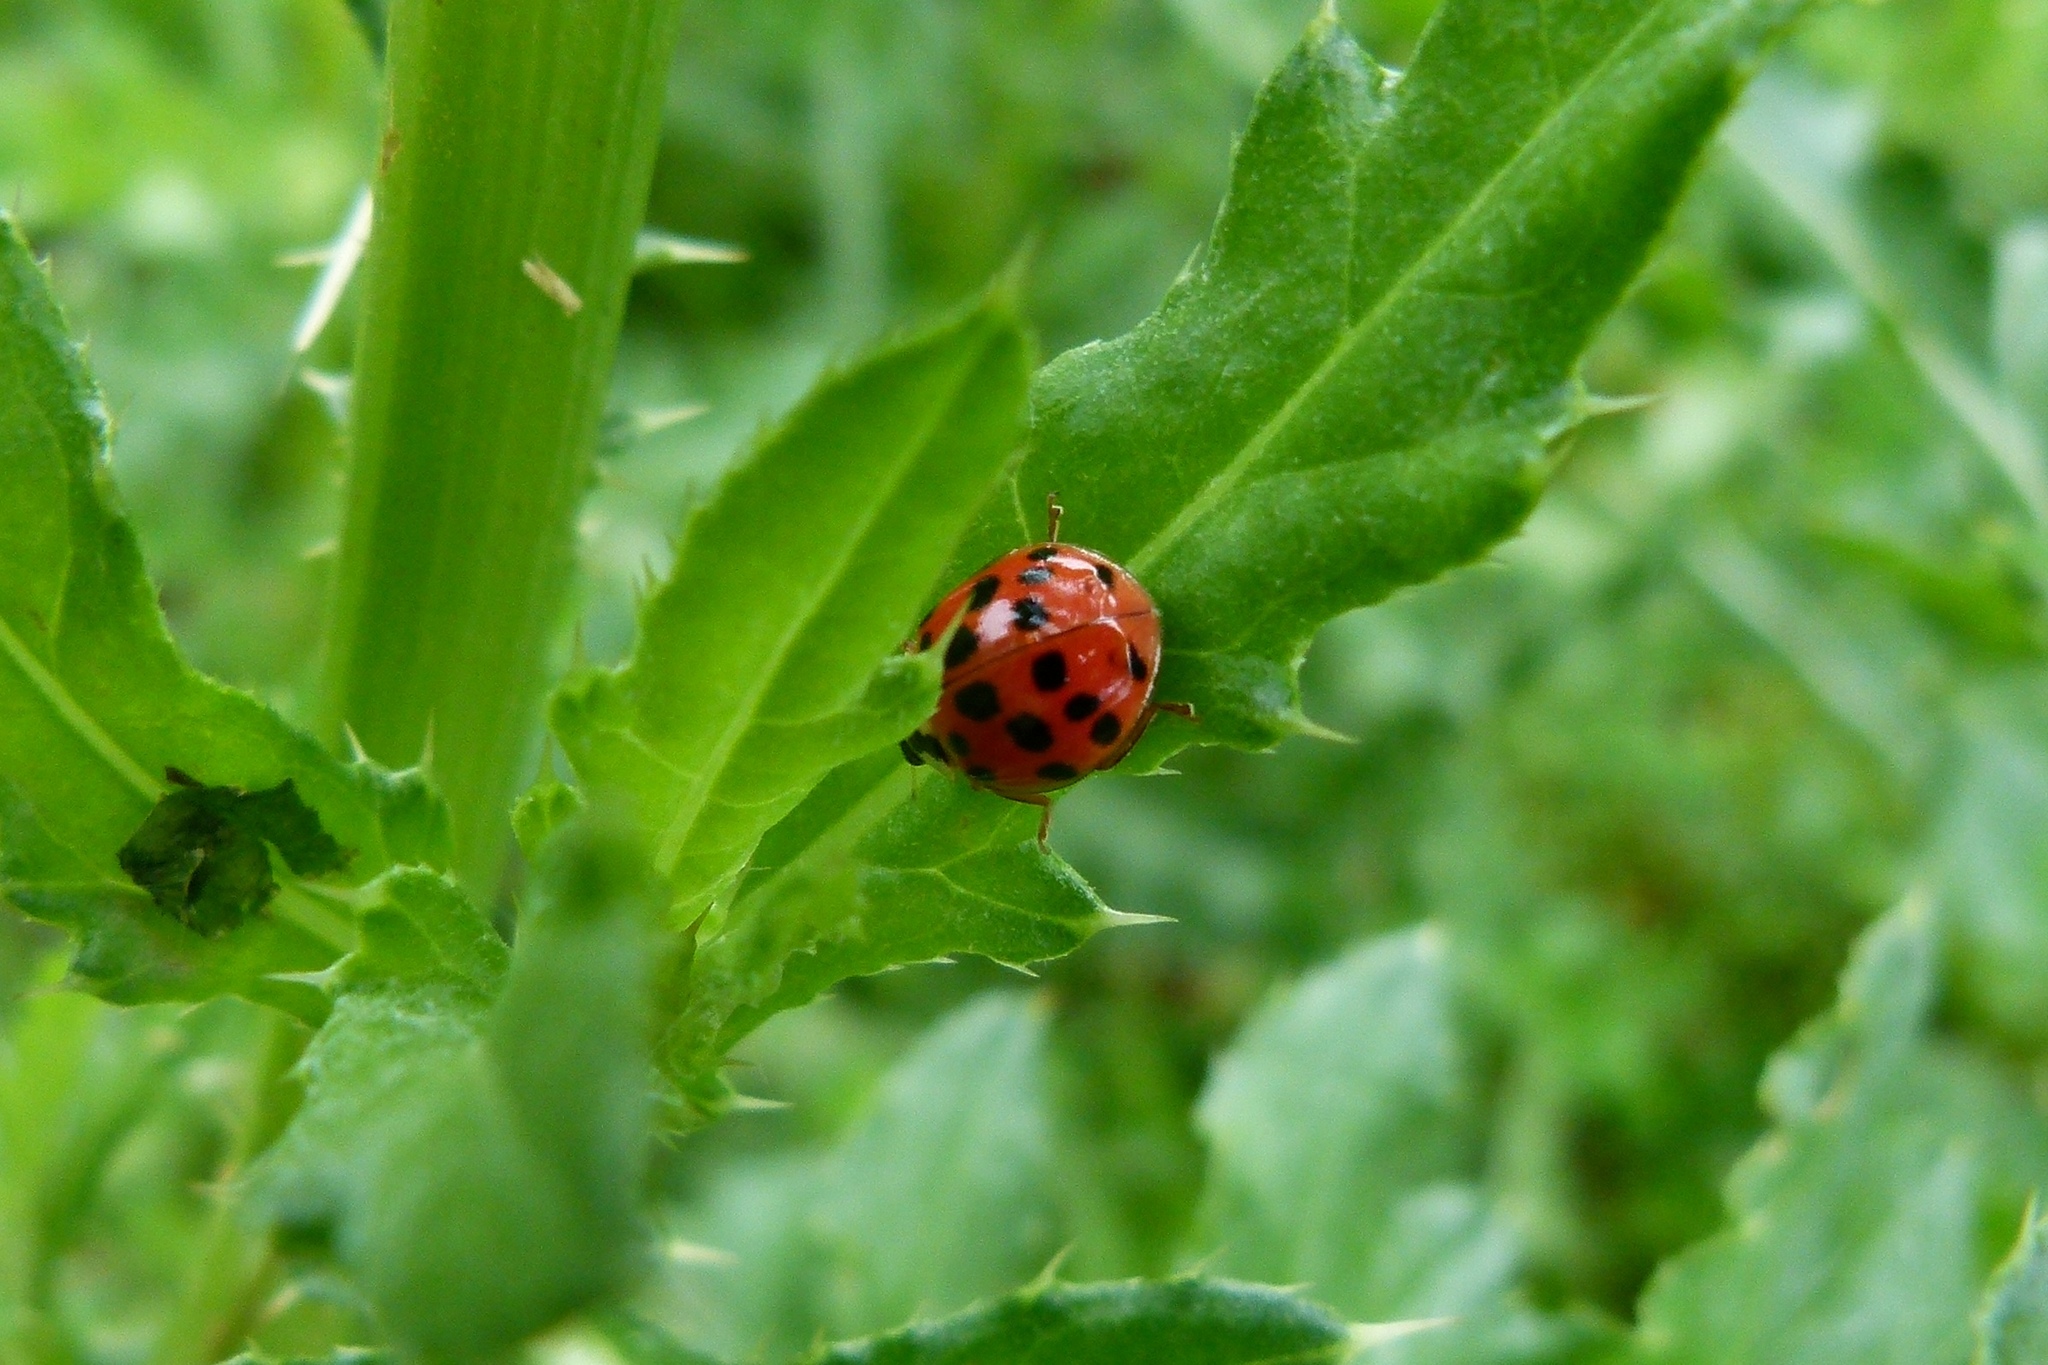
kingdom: Animalia
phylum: Arthropoda
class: Insecta
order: Coleoptera
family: Coccinellidae
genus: Harmonia
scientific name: Harmonia axyridis
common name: Harlequin ladybird
